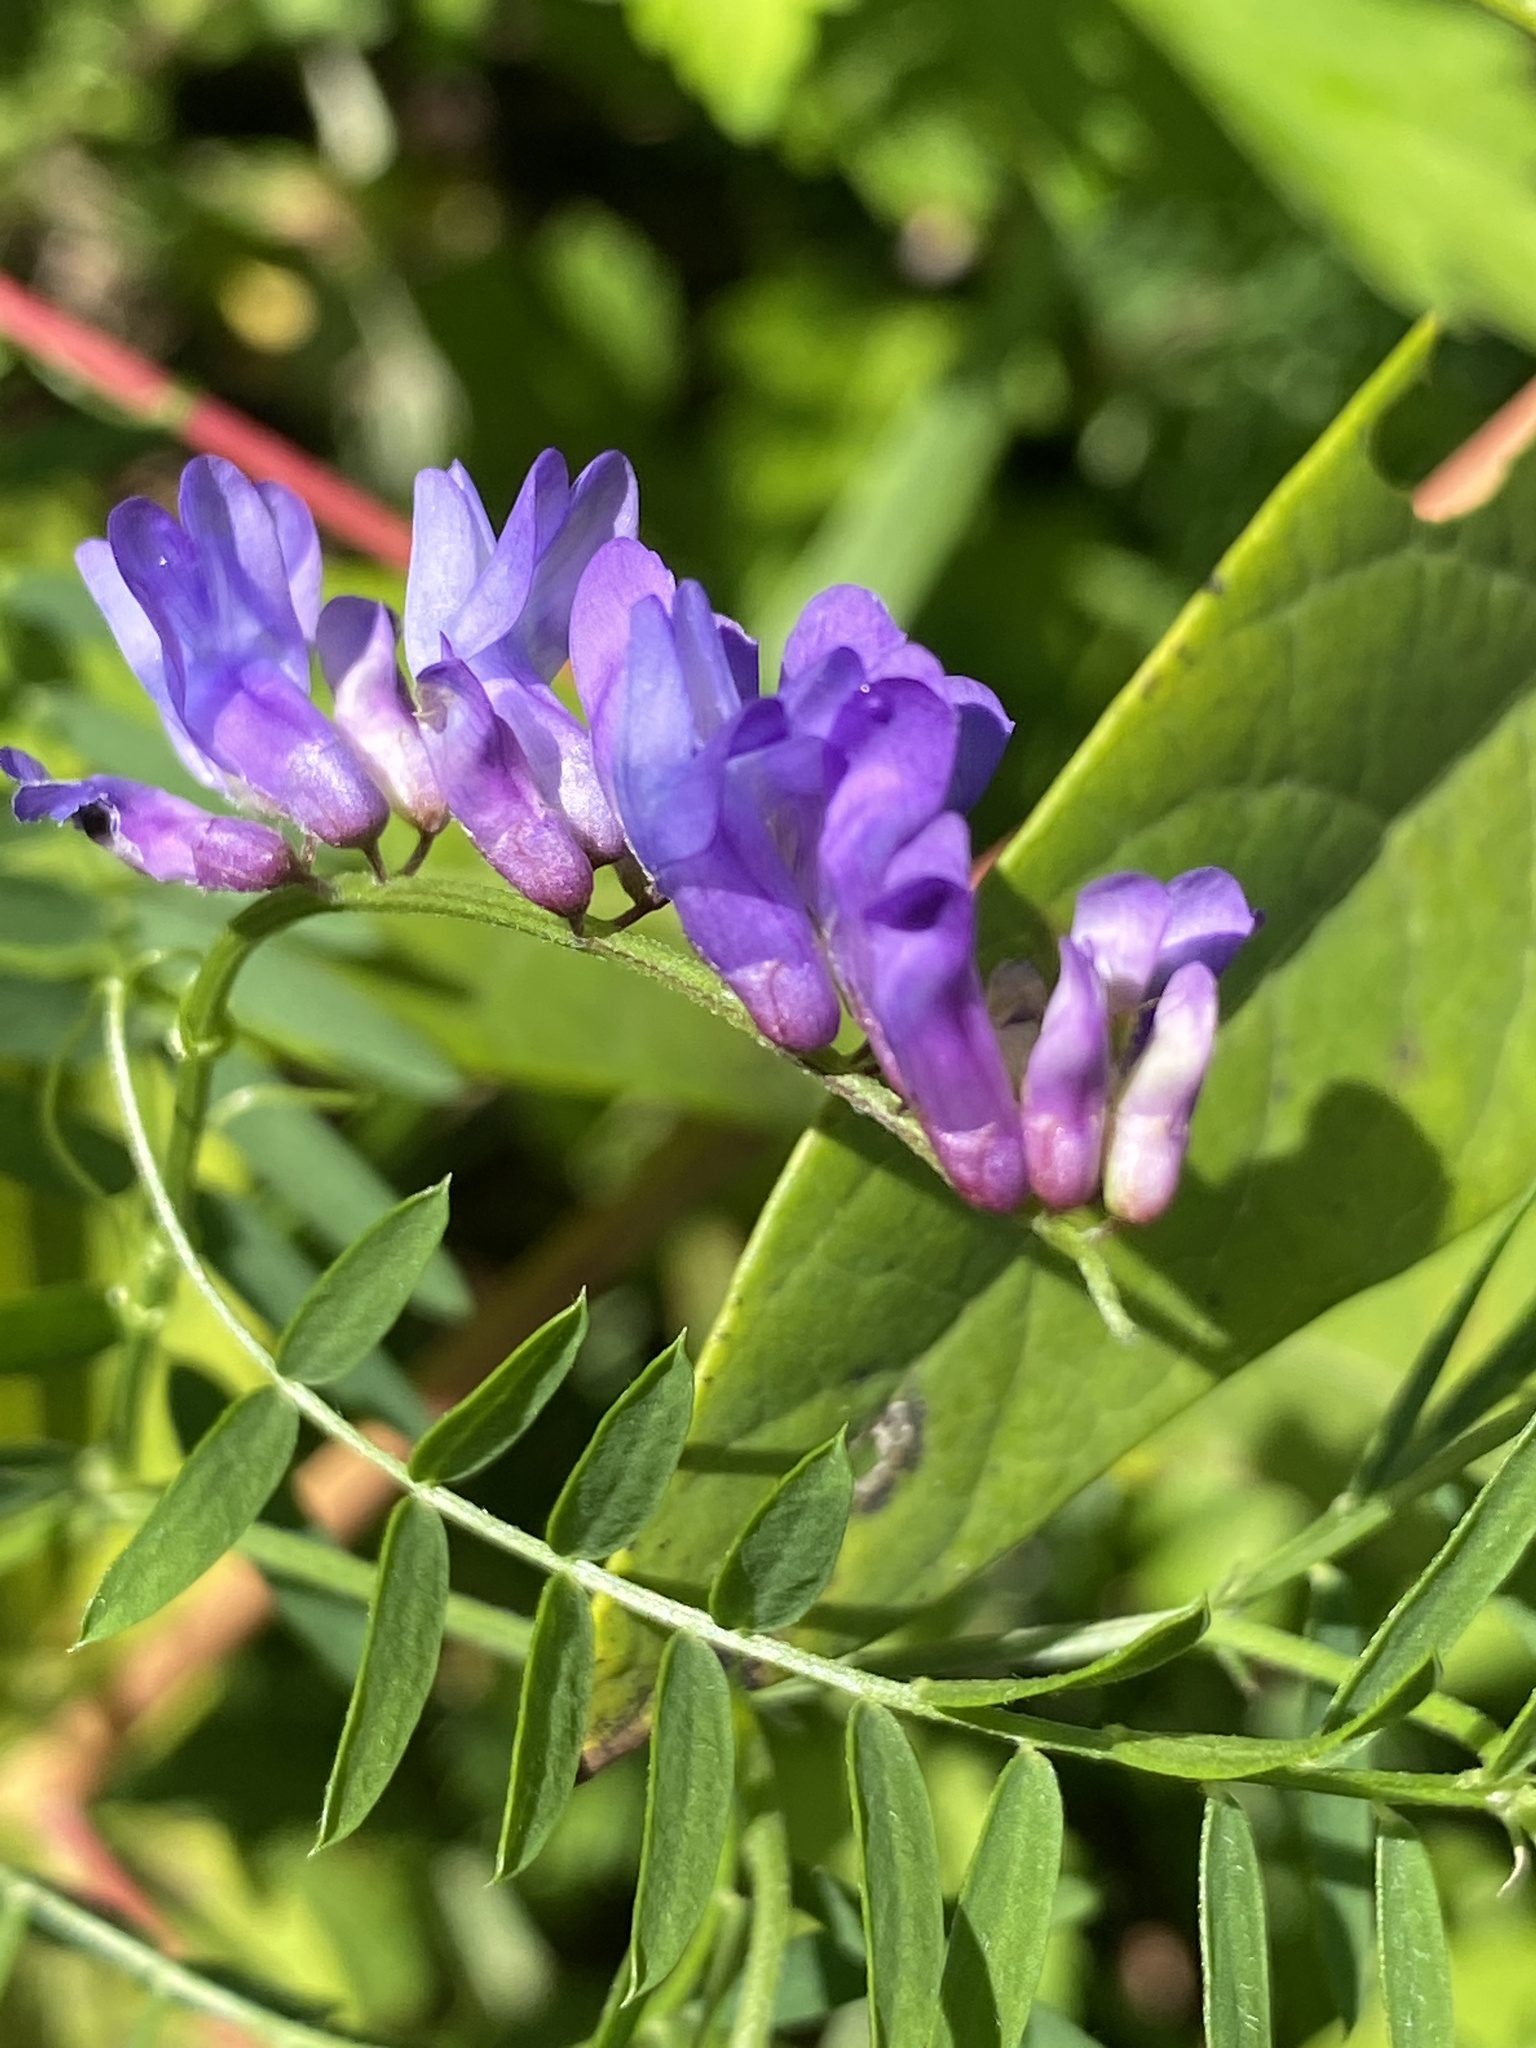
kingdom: Plantae
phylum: Tracheophyta
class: Magnoliopsida
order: Fabales
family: Fabaceae
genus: Vicia
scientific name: Vicia cracca
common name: Bird vetch
